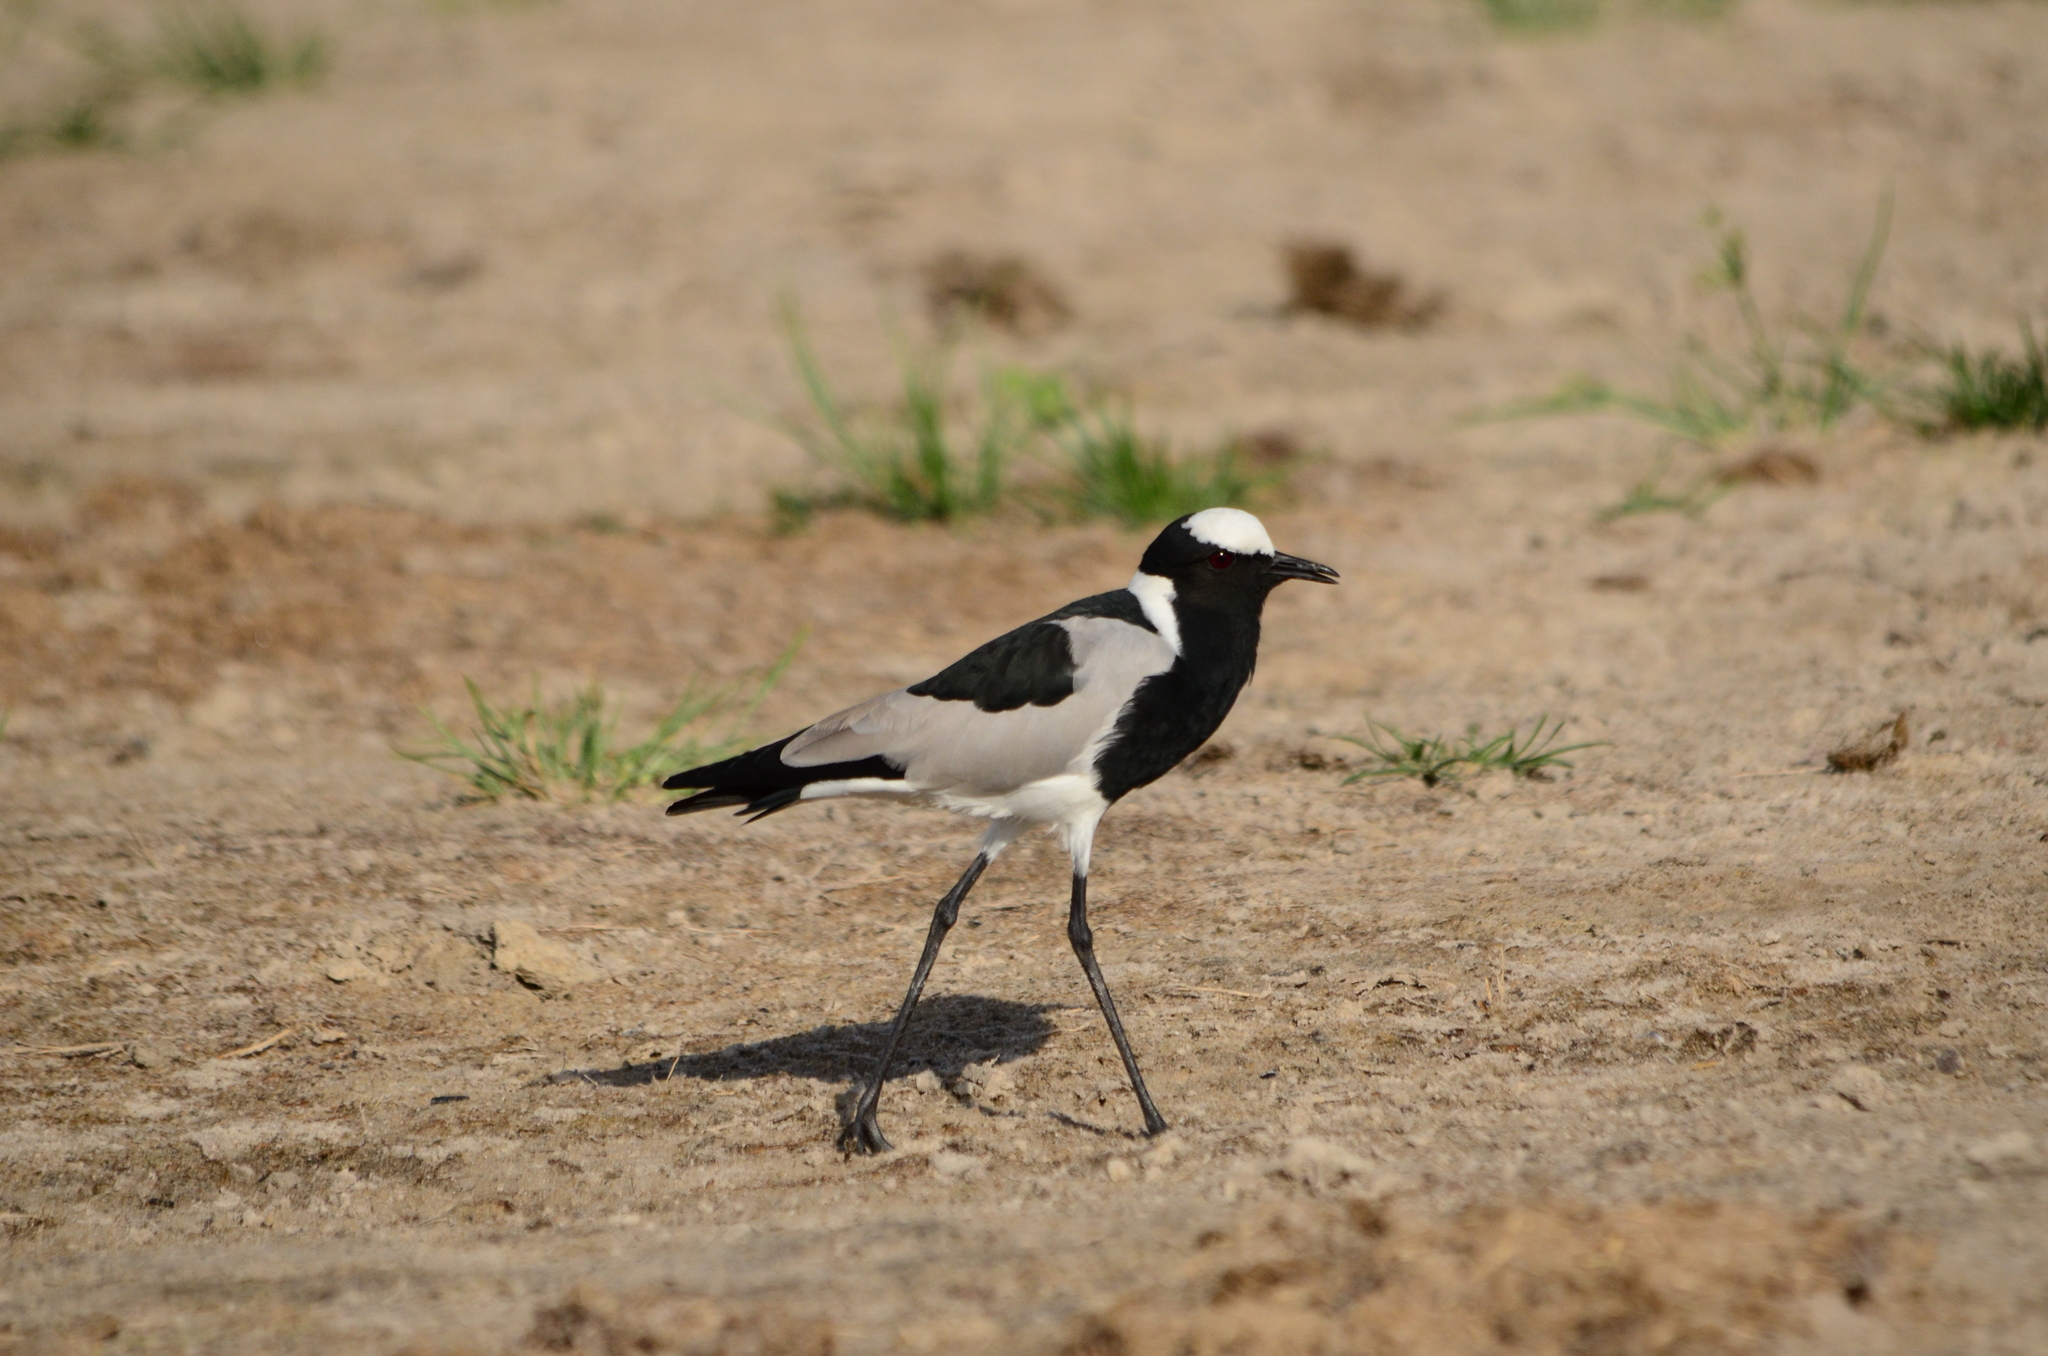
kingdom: Animalia
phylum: Chordata
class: Aves
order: Charadriiformes
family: Charadriidae
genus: Vanellus
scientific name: Vanellus armatus
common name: Blacksmith lapwing
